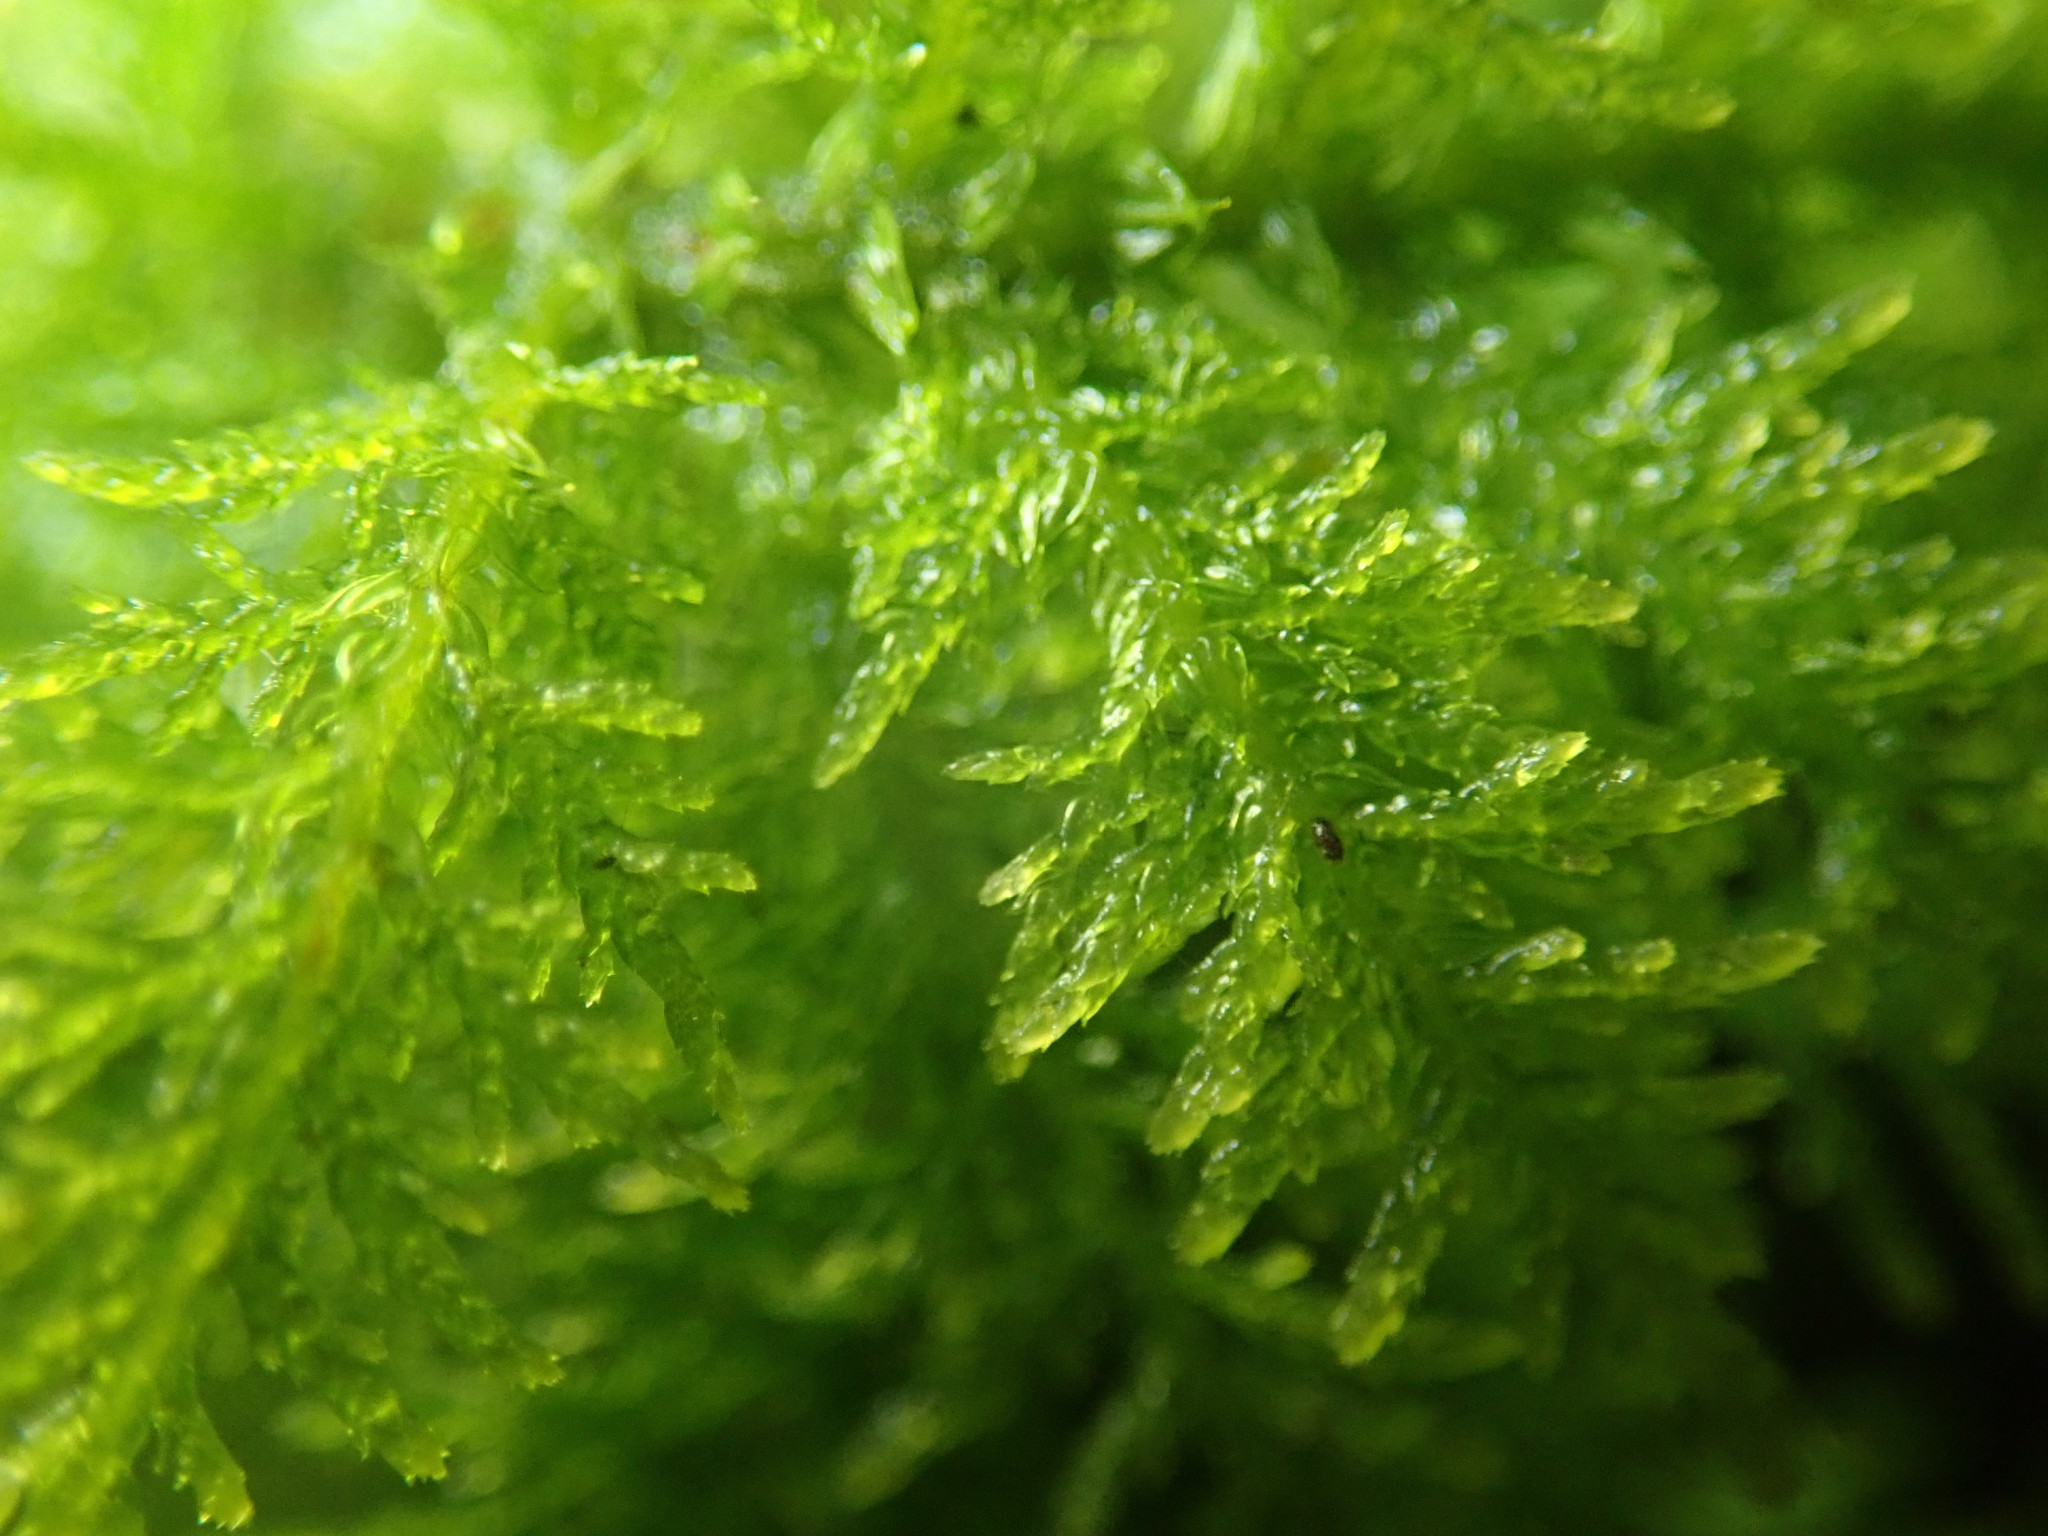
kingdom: Plantae
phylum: Bryophyta
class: Bryopsida
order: Hypnales
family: Thuidiaceae
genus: Thuidium
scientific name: Thuidium tamariscinum
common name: Common tamarisk-moss
